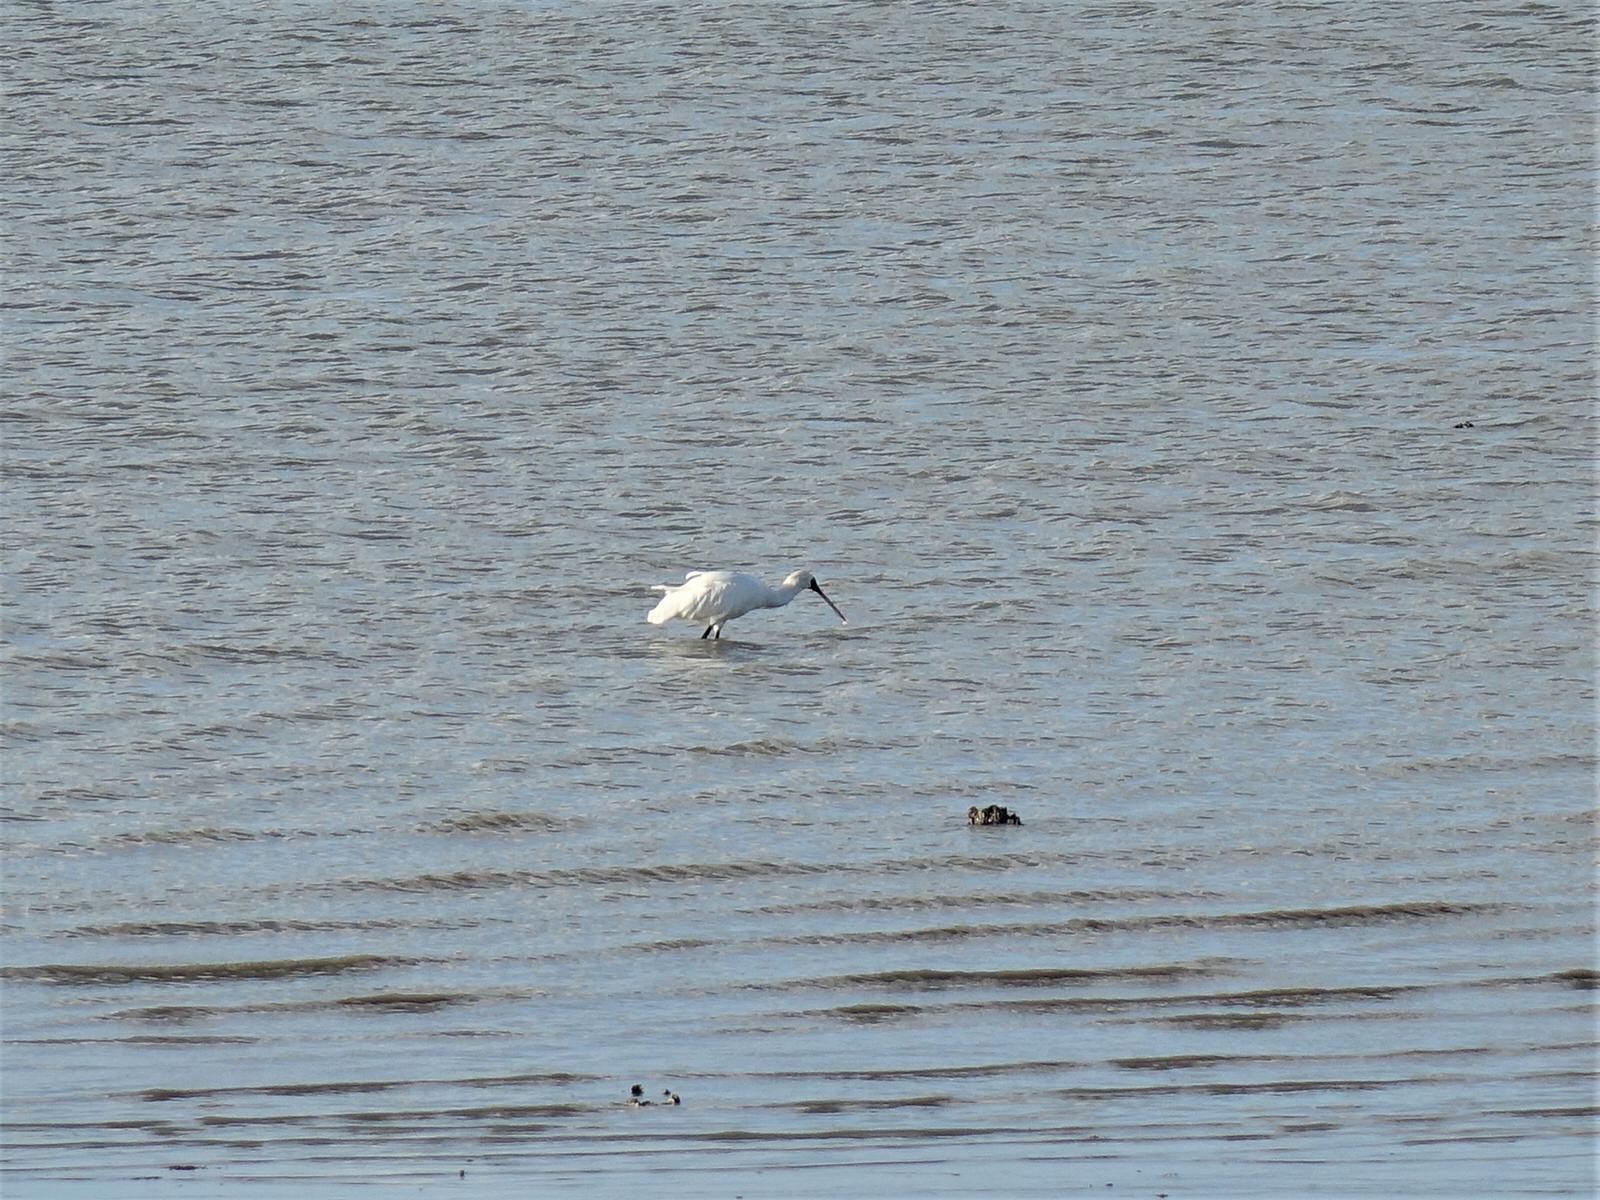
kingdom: Animalia
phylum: Chordata
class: Aves
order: Pelecaniformes
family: Threskiornithidae
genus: Platalea
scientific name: Platalea regia
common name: Royal spoonbill
